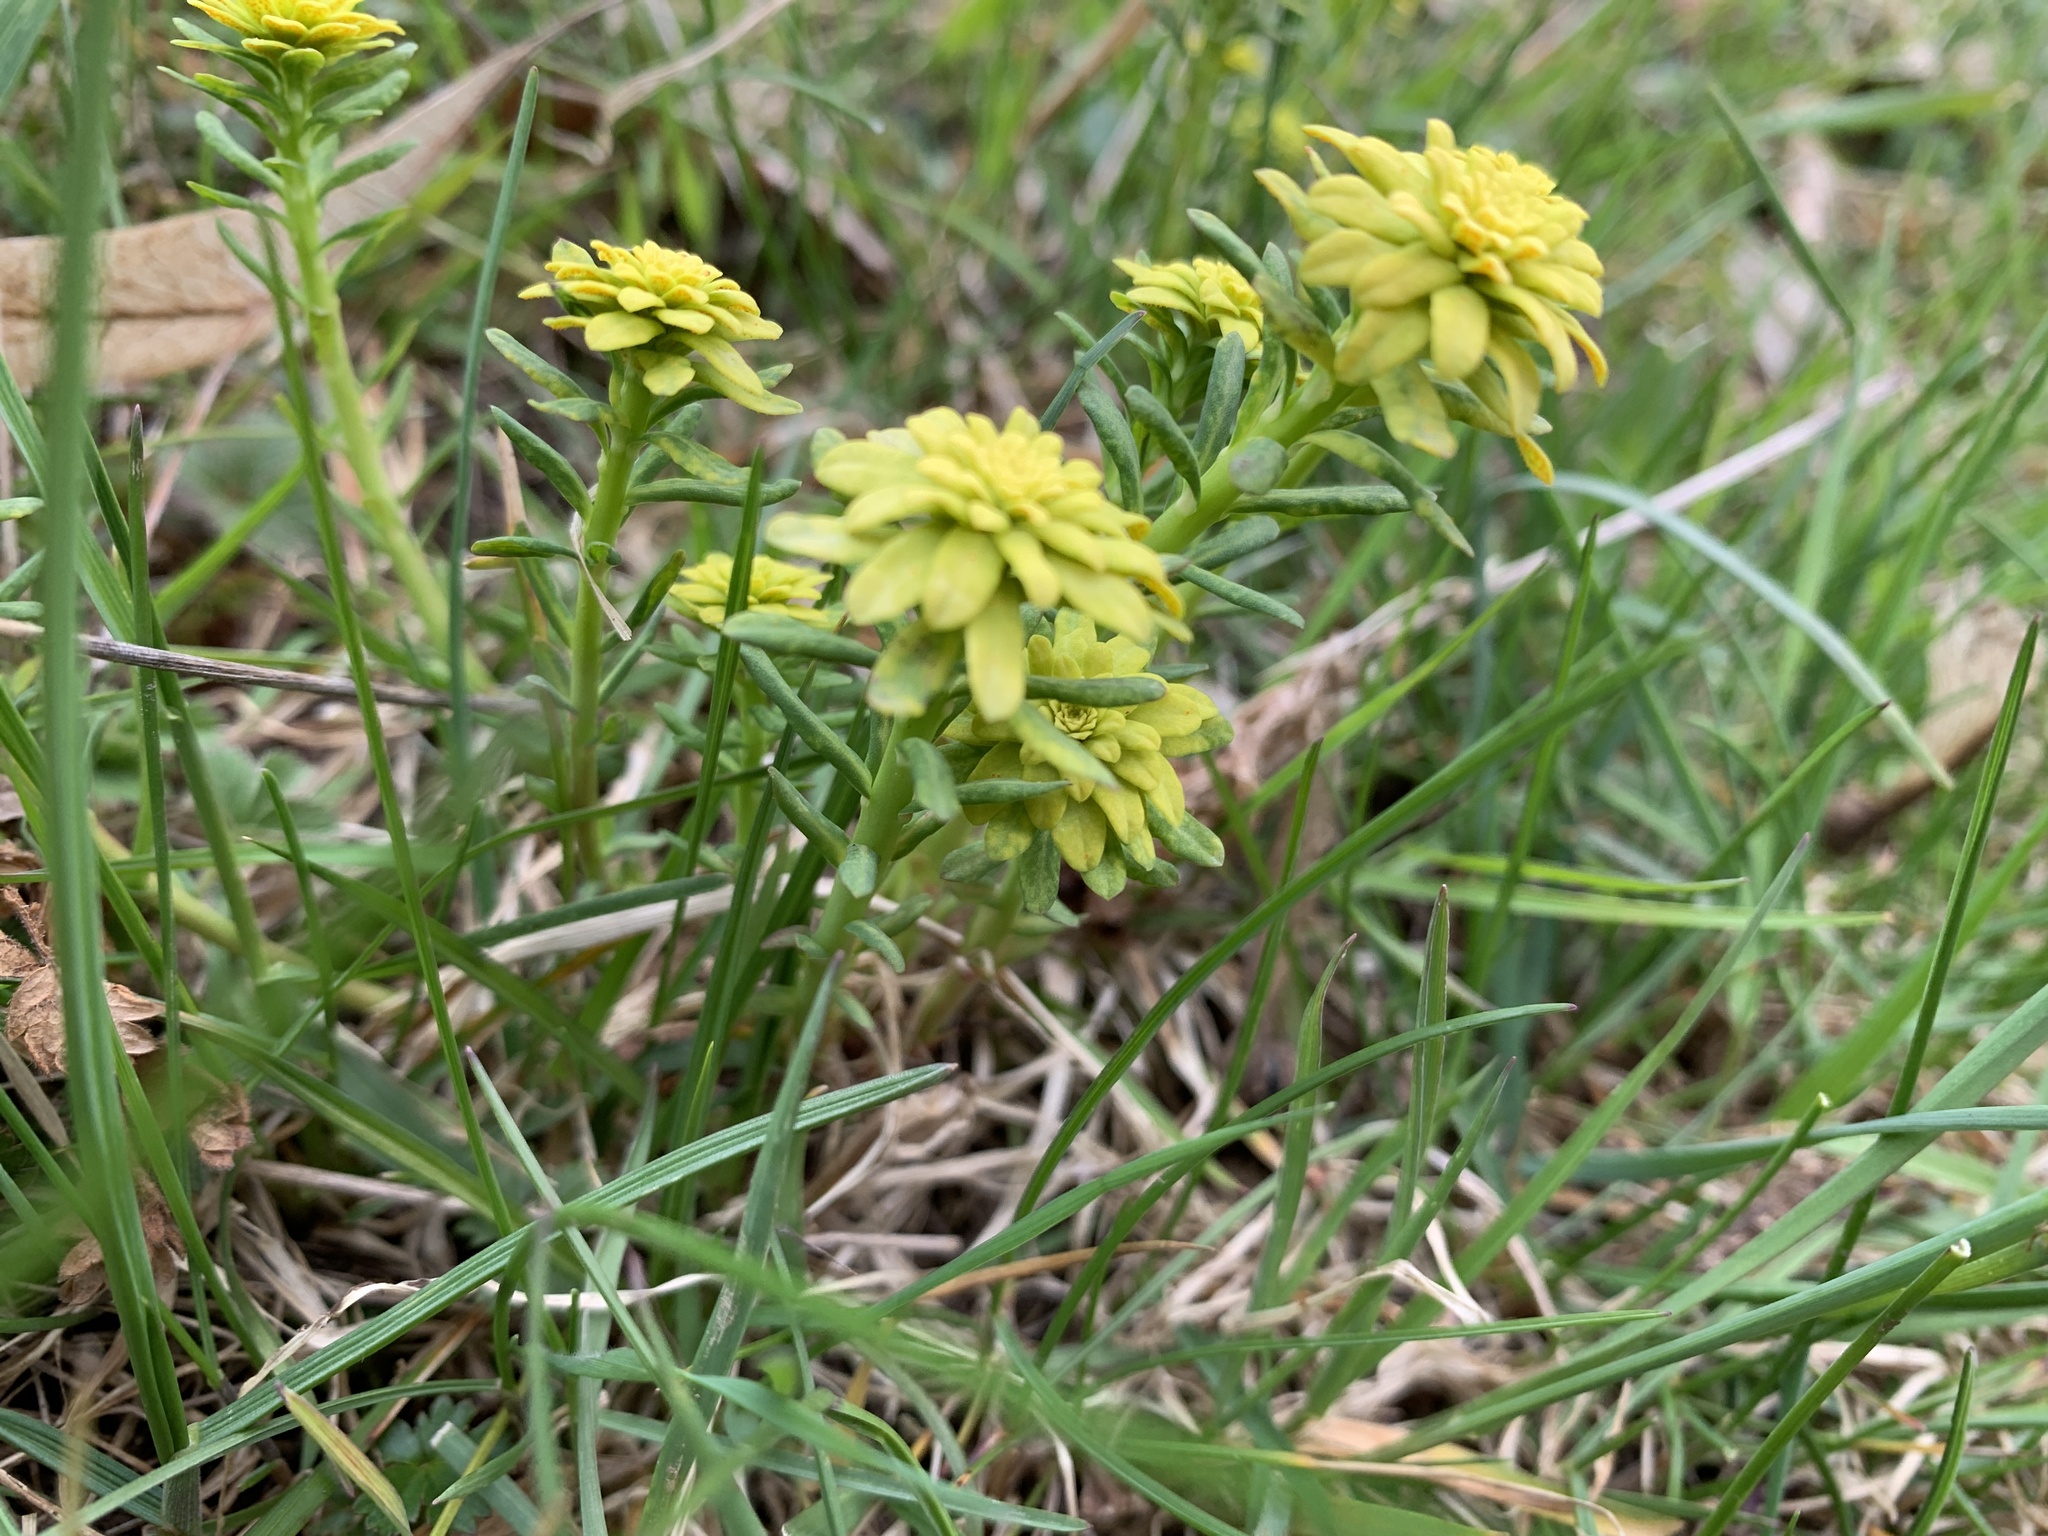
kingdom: Plantae
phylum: Tracheophyta
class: Magnoliopsida
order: Malpighiales
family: Euphorbiaceae
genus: Euphorbia
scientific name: Euphorbia cyparissias
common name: Cypress spurge
